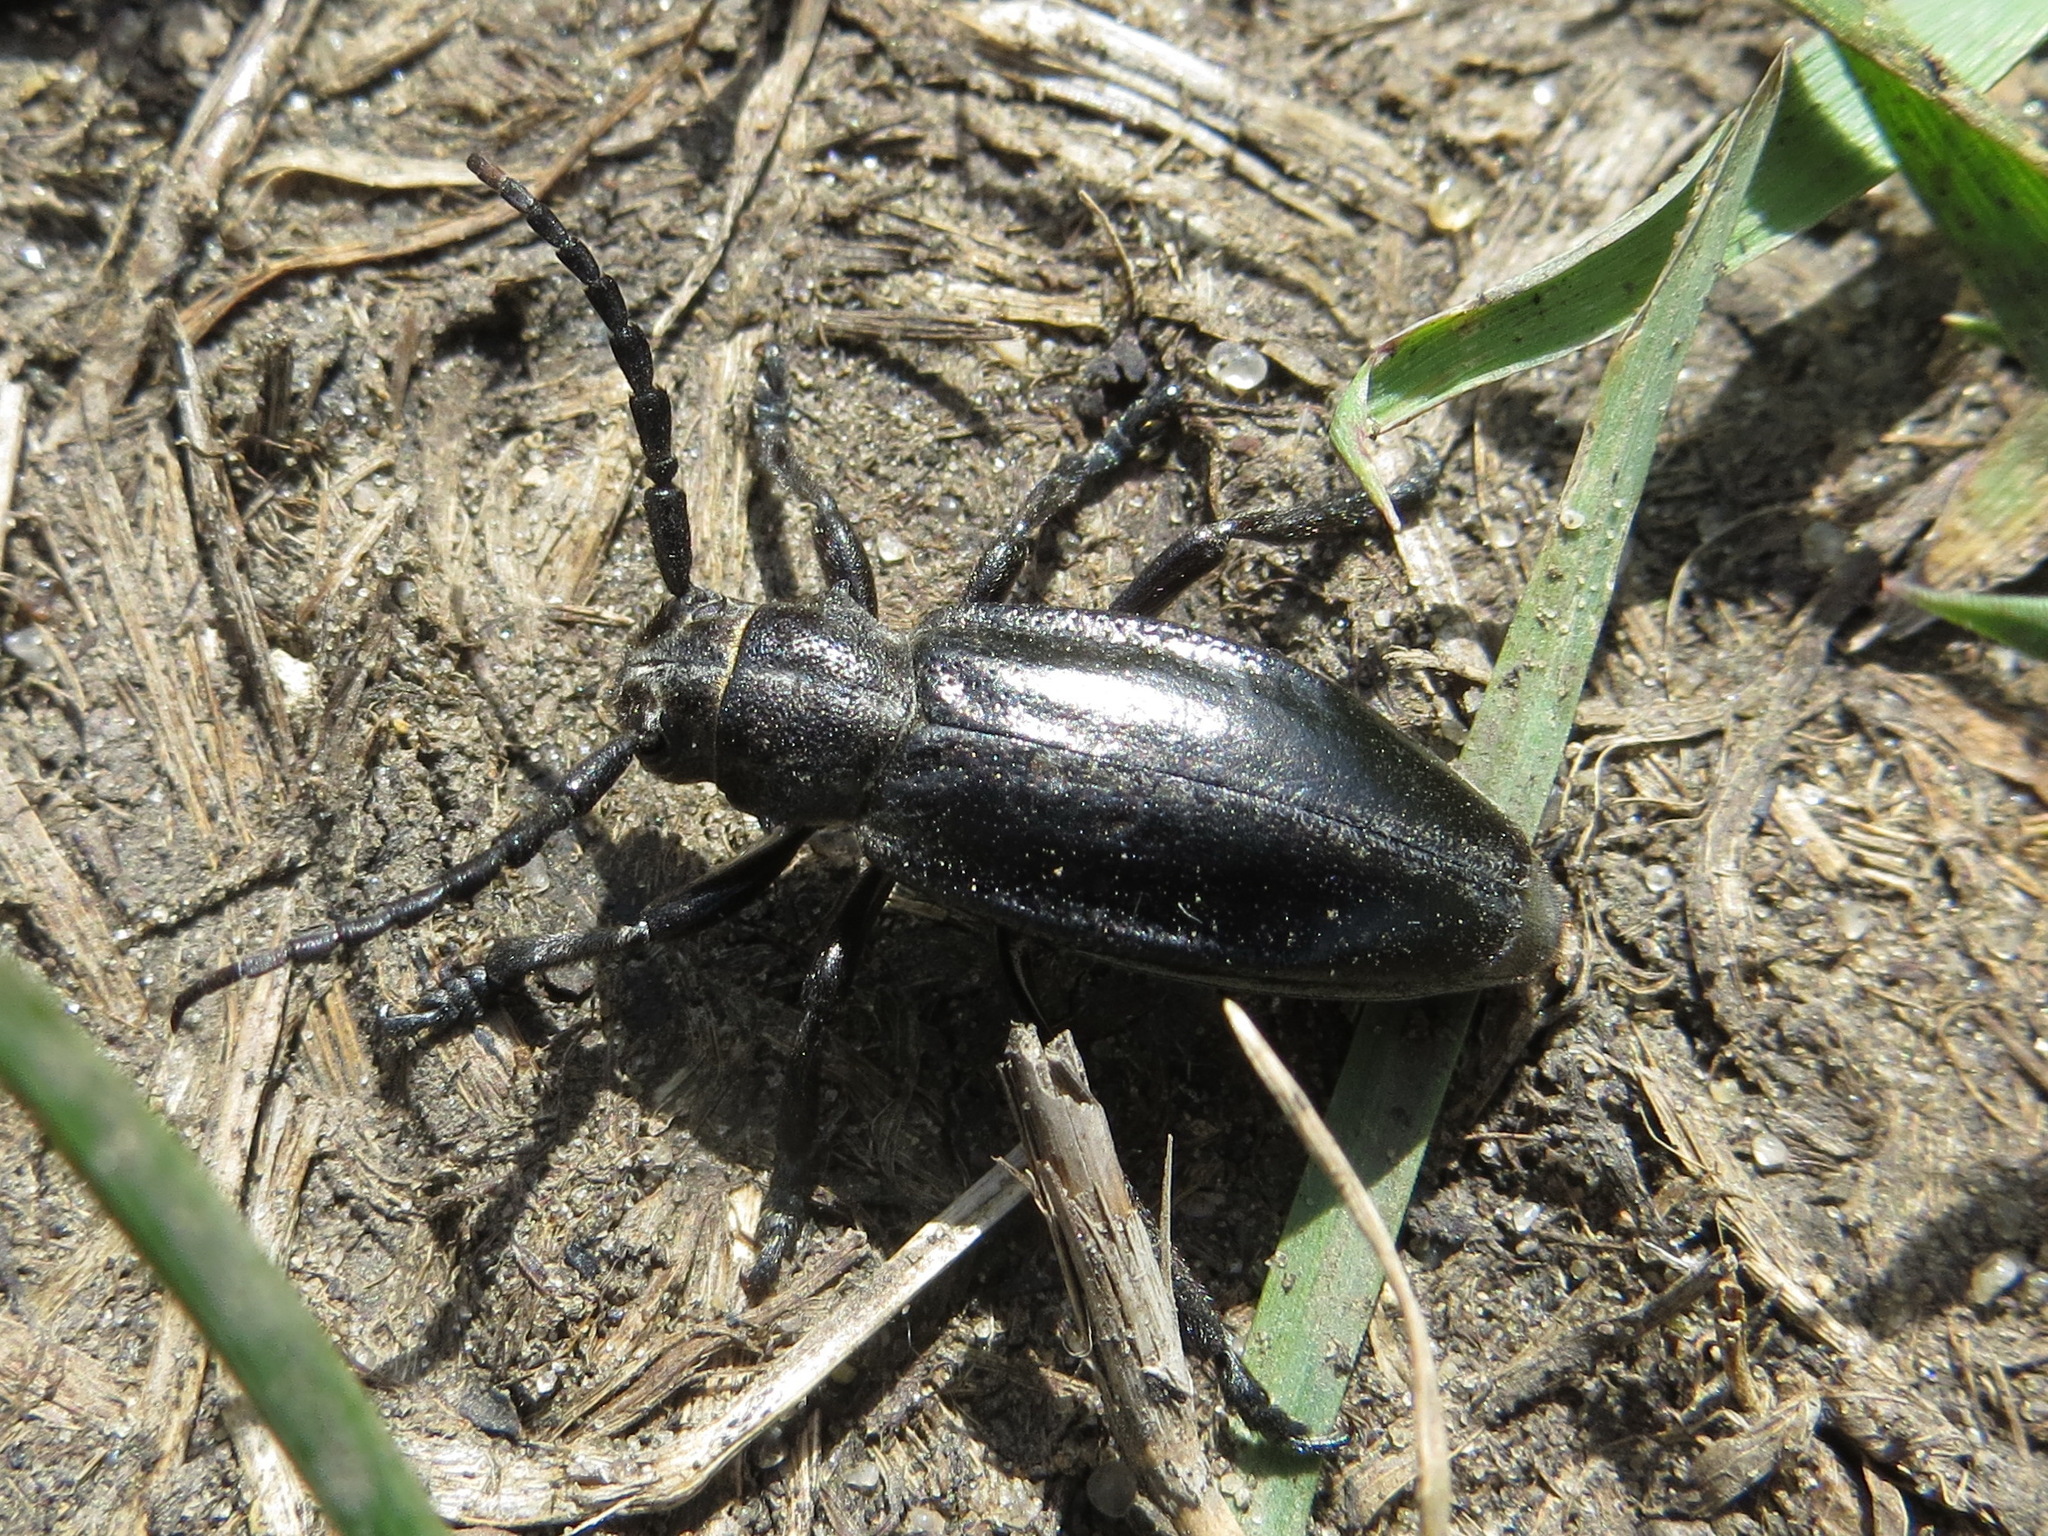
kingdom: Animalia
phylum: Arthropoda
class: Insecta
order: Coleoptera
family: Cerambycidae
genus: Dorcadion
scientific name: Dorcadion carinatum
